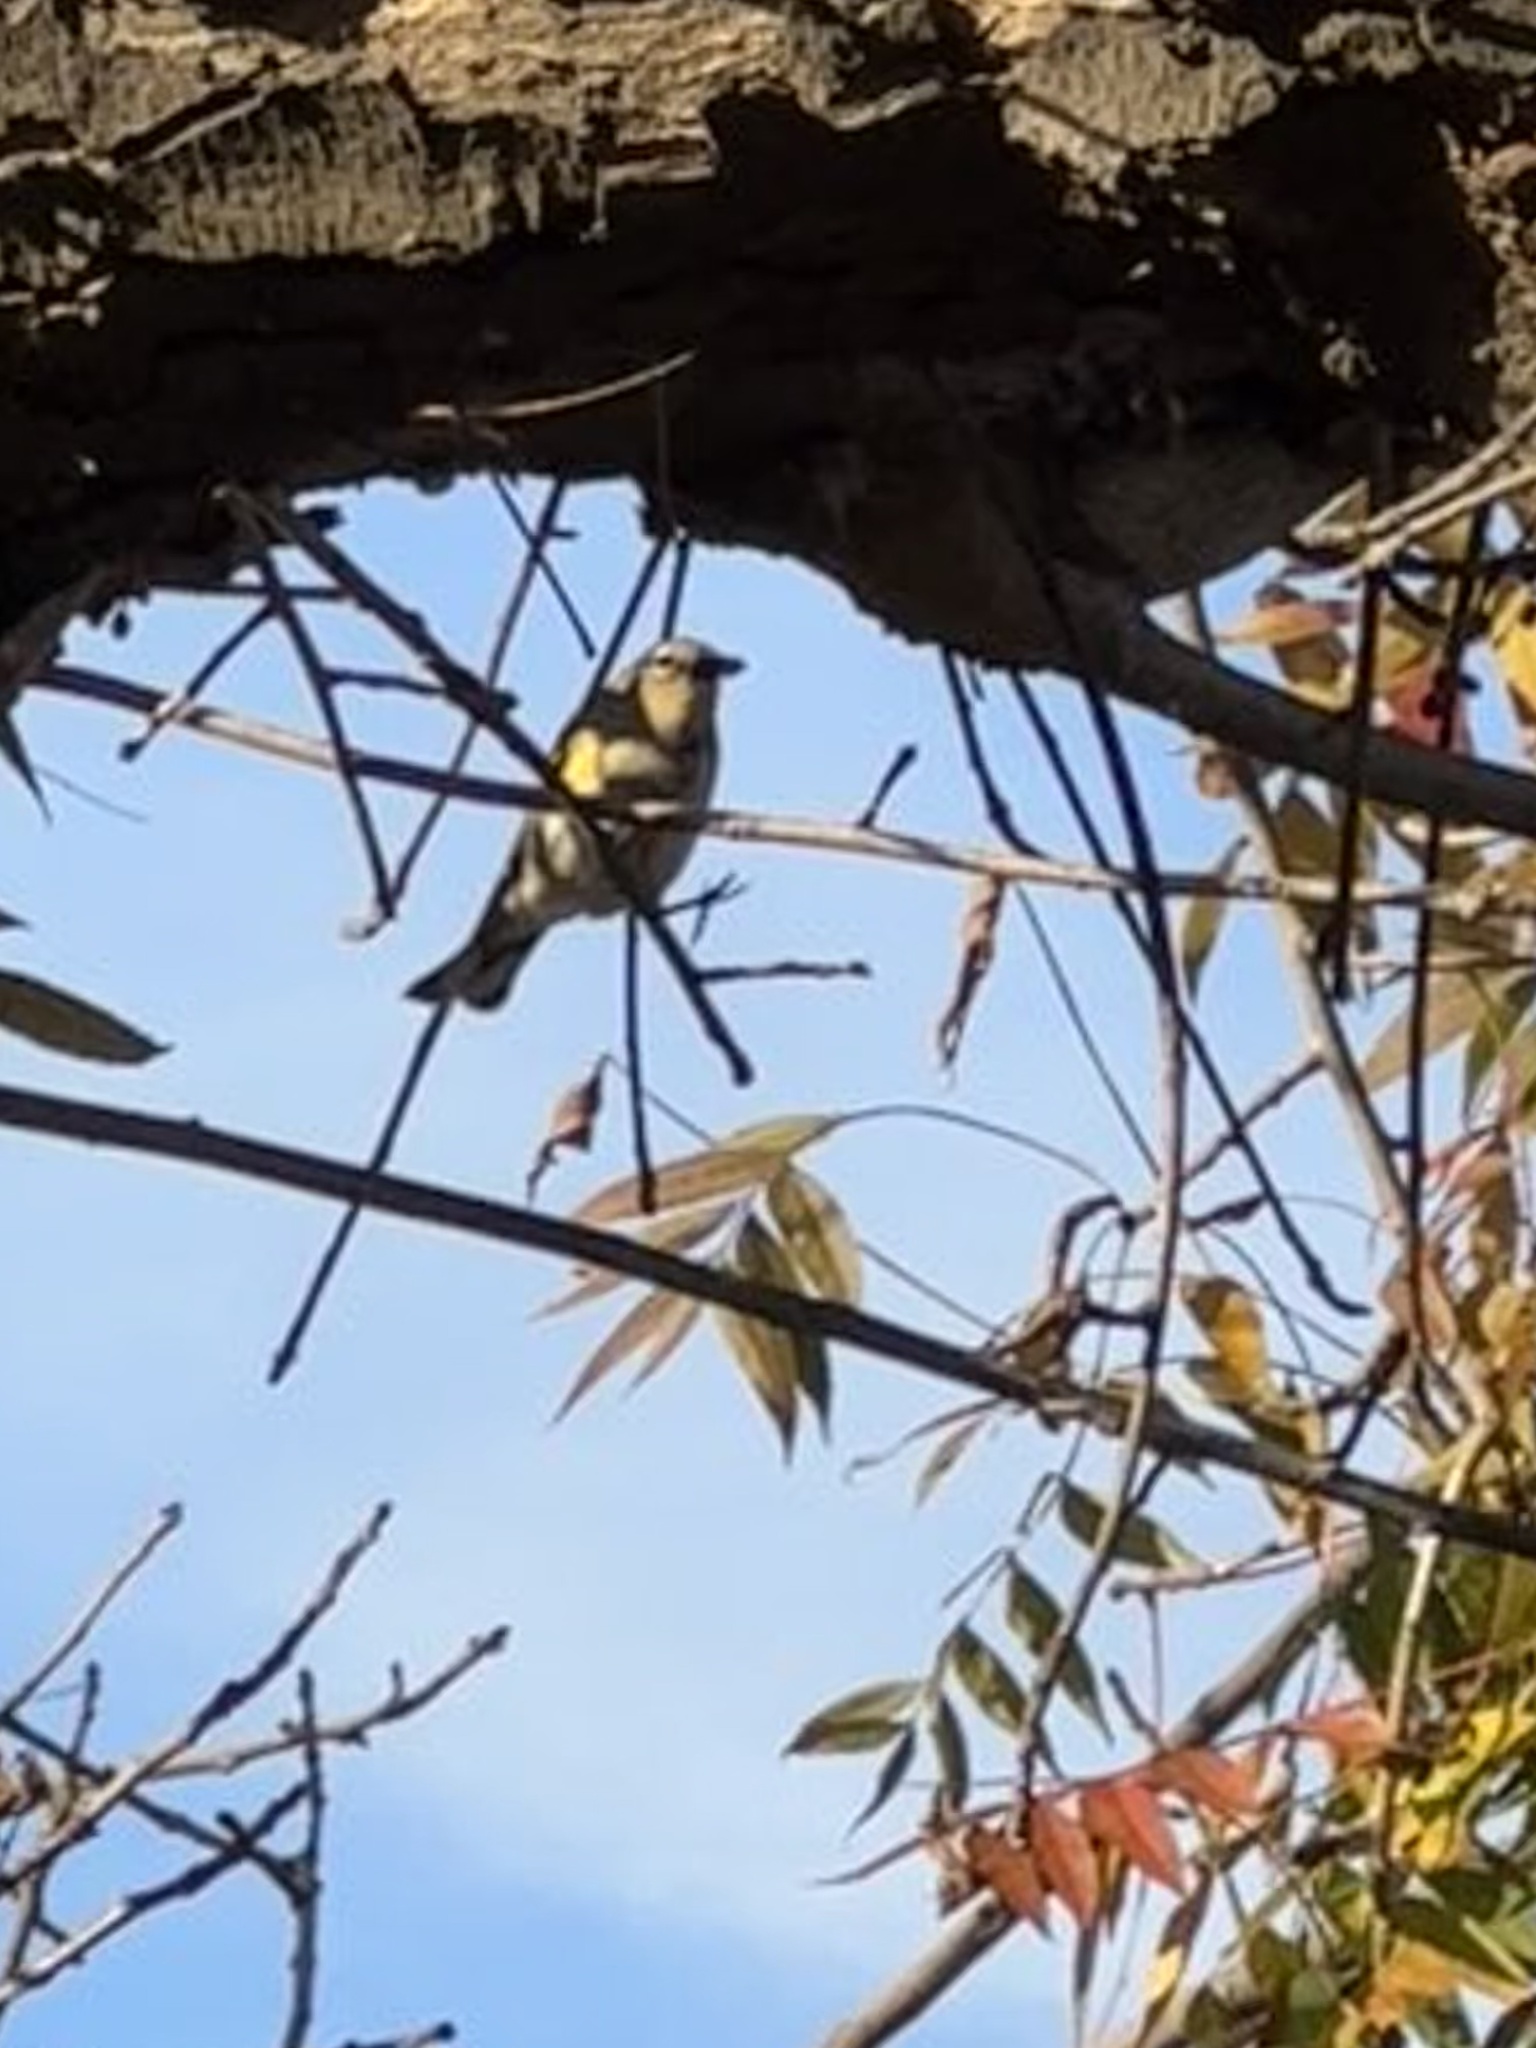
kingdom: Animalia
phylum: Chordata
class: Aves
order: Passeriformes
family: Parulidae
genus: Setophaga
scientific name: Setophaga coronata
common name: Myrtle warbler
